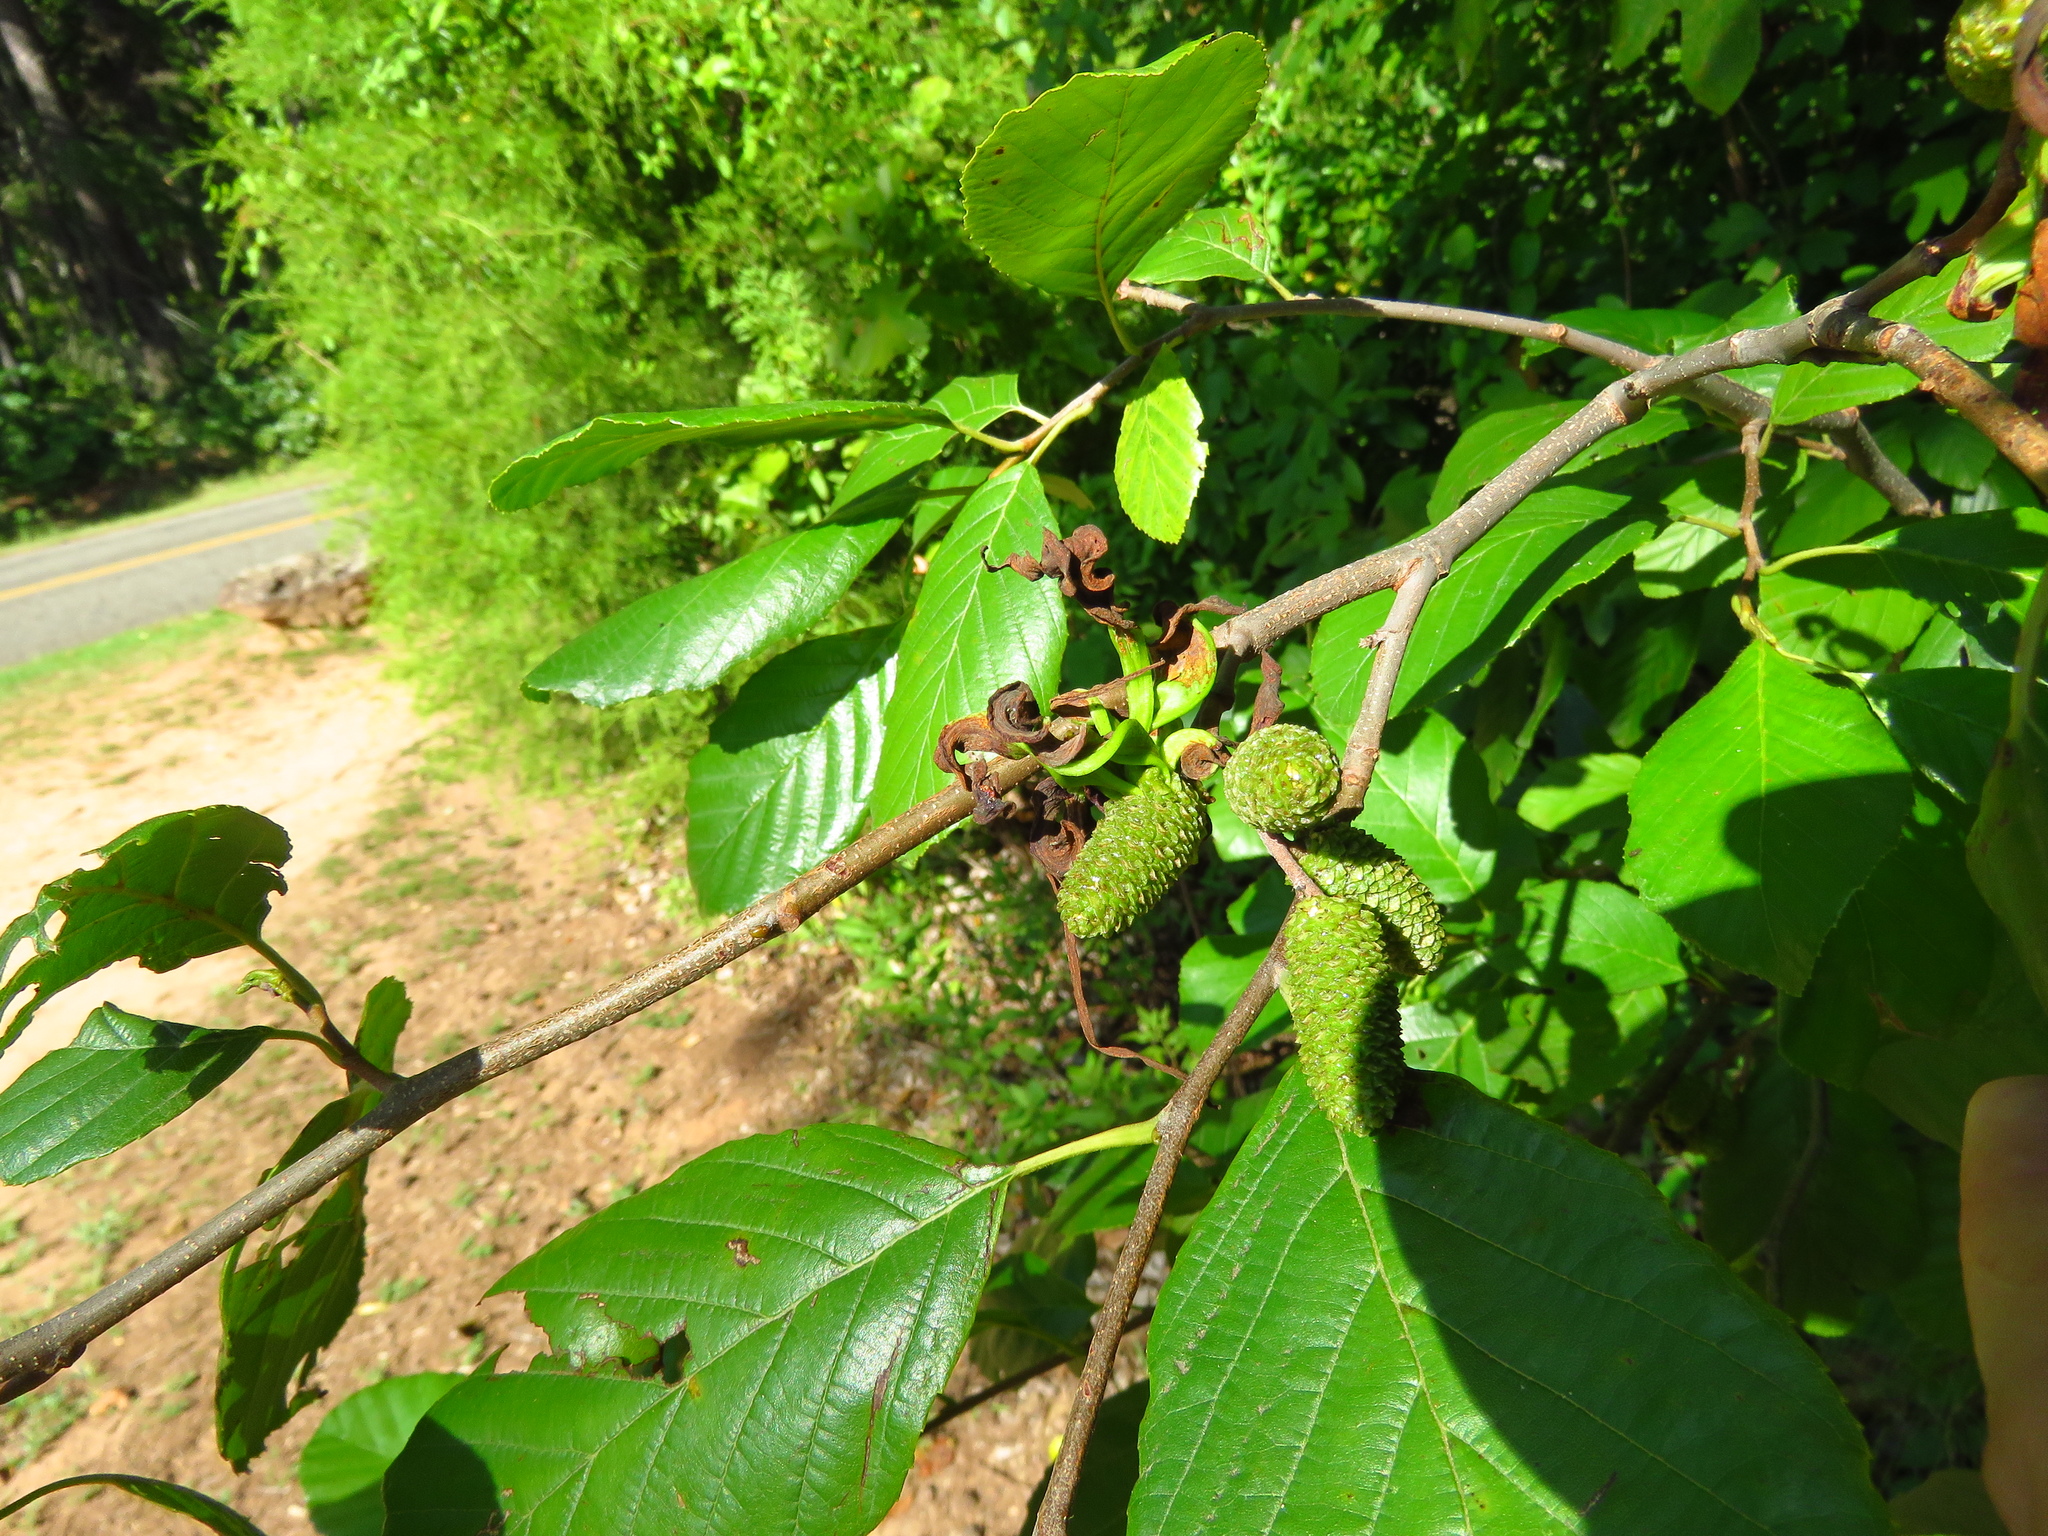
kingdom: Plantae
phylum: Tracheophyta
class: Magnoliopsida
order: Fagales
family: Betulaceae
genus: Alnus
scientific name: Alnus serrulata
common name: Hazel alder
